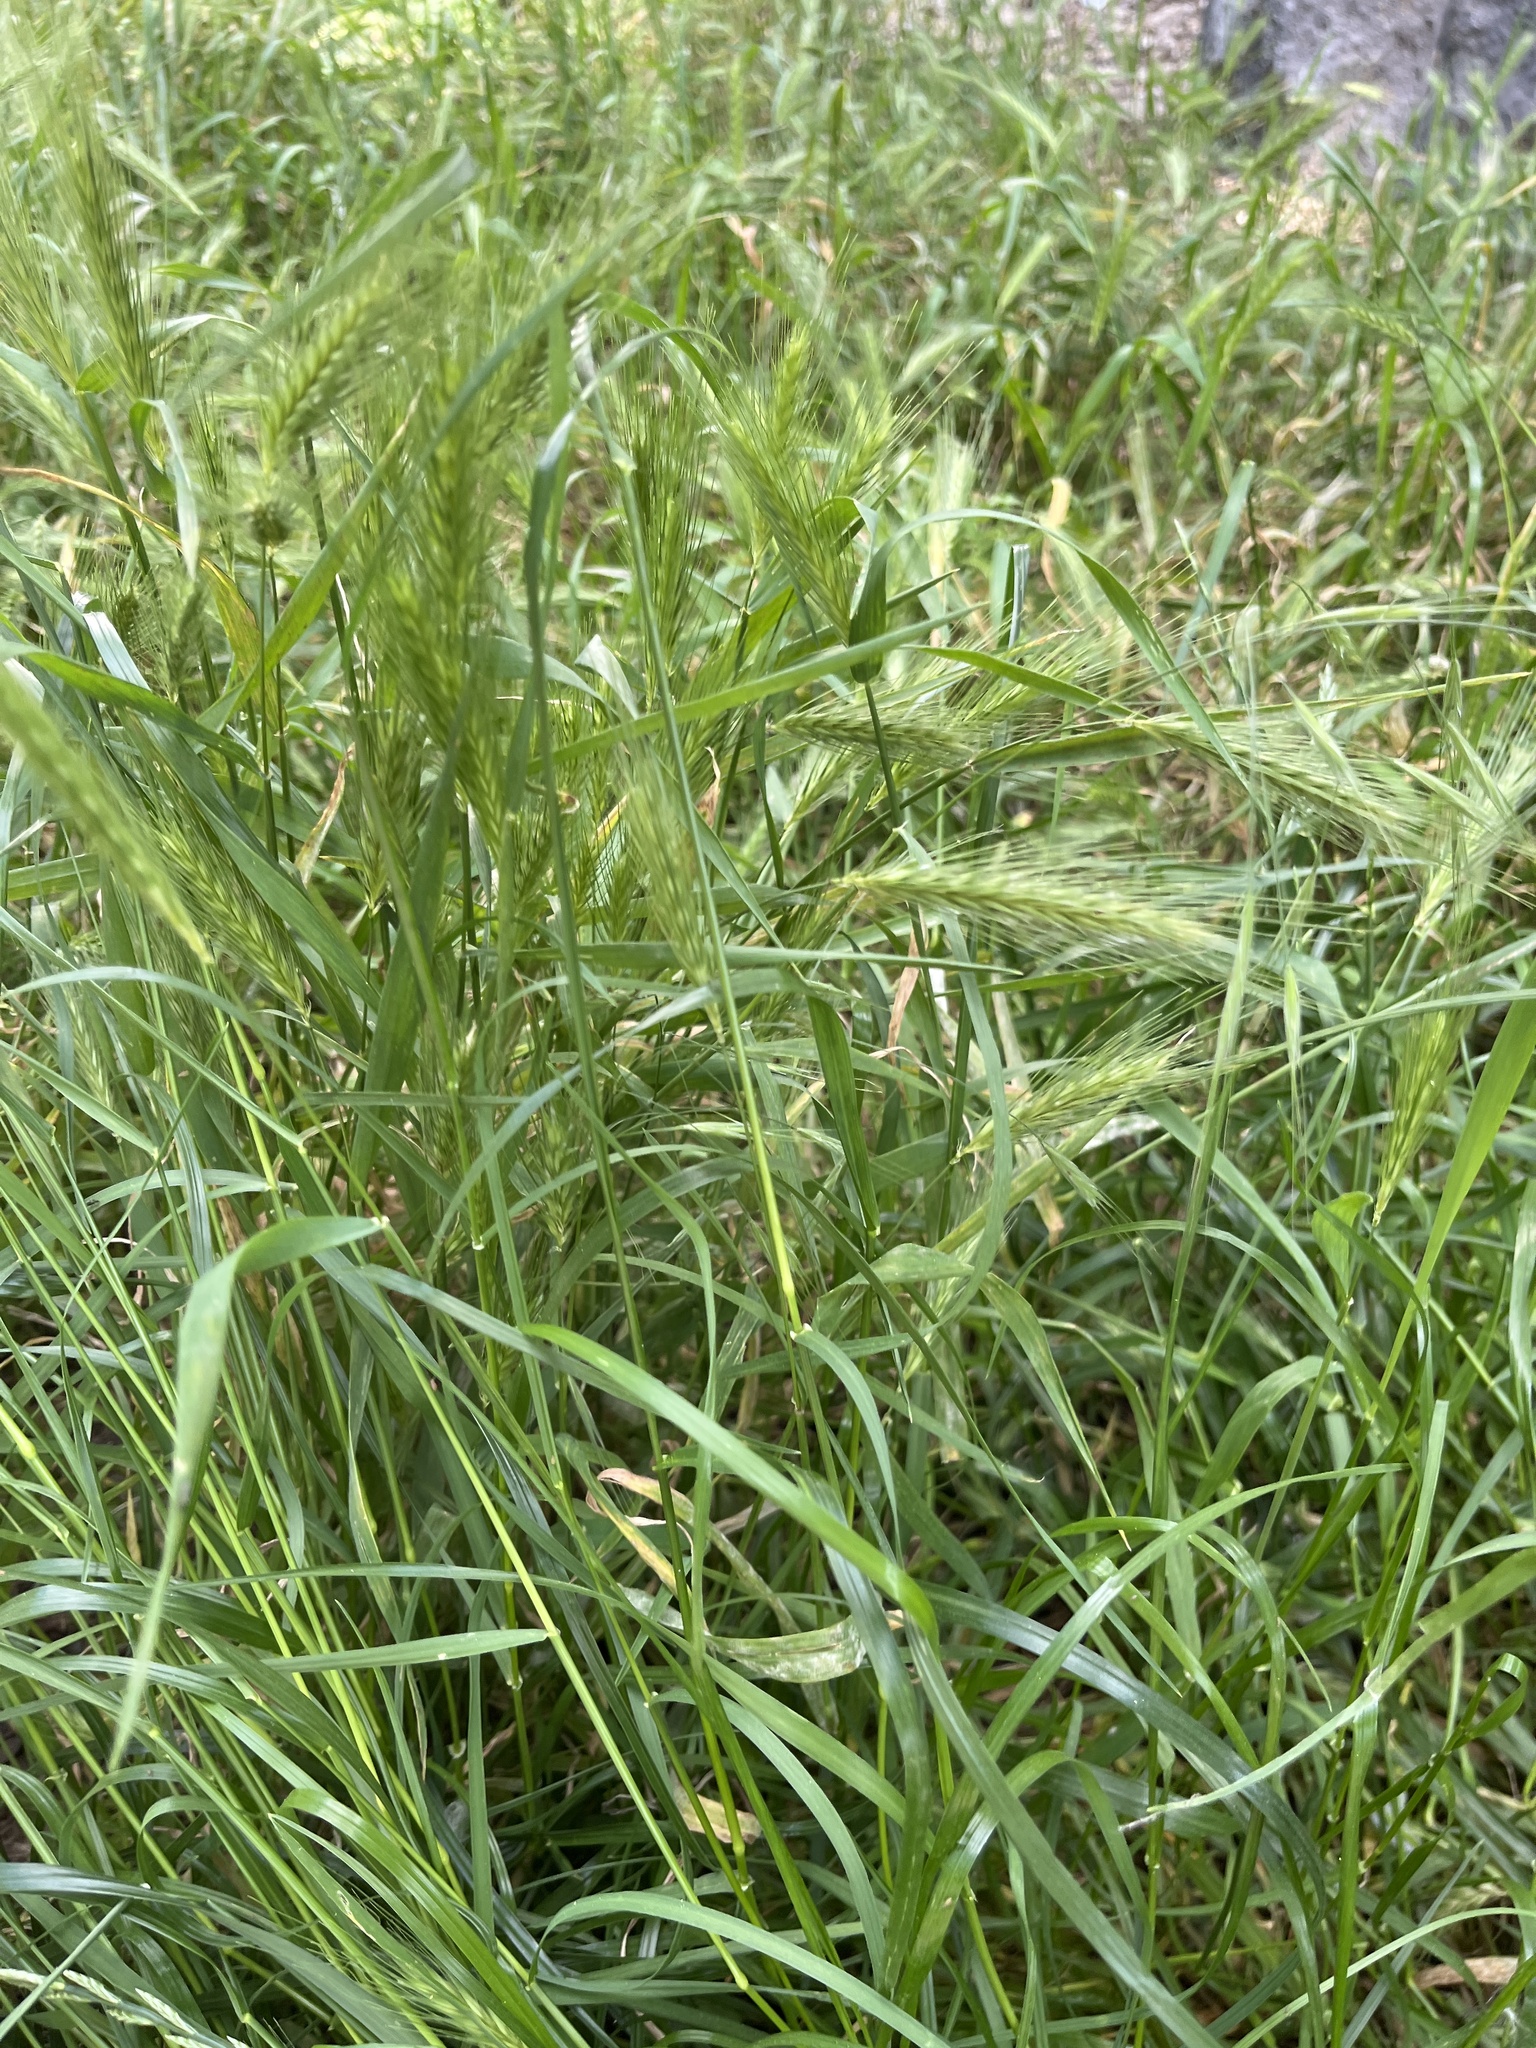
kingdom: Plantae
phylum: Tracheophyta
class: Liliopsida
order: Poales
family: Poaceae
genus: Hordeum
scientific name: Hordeum murinum
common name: Wall barley
